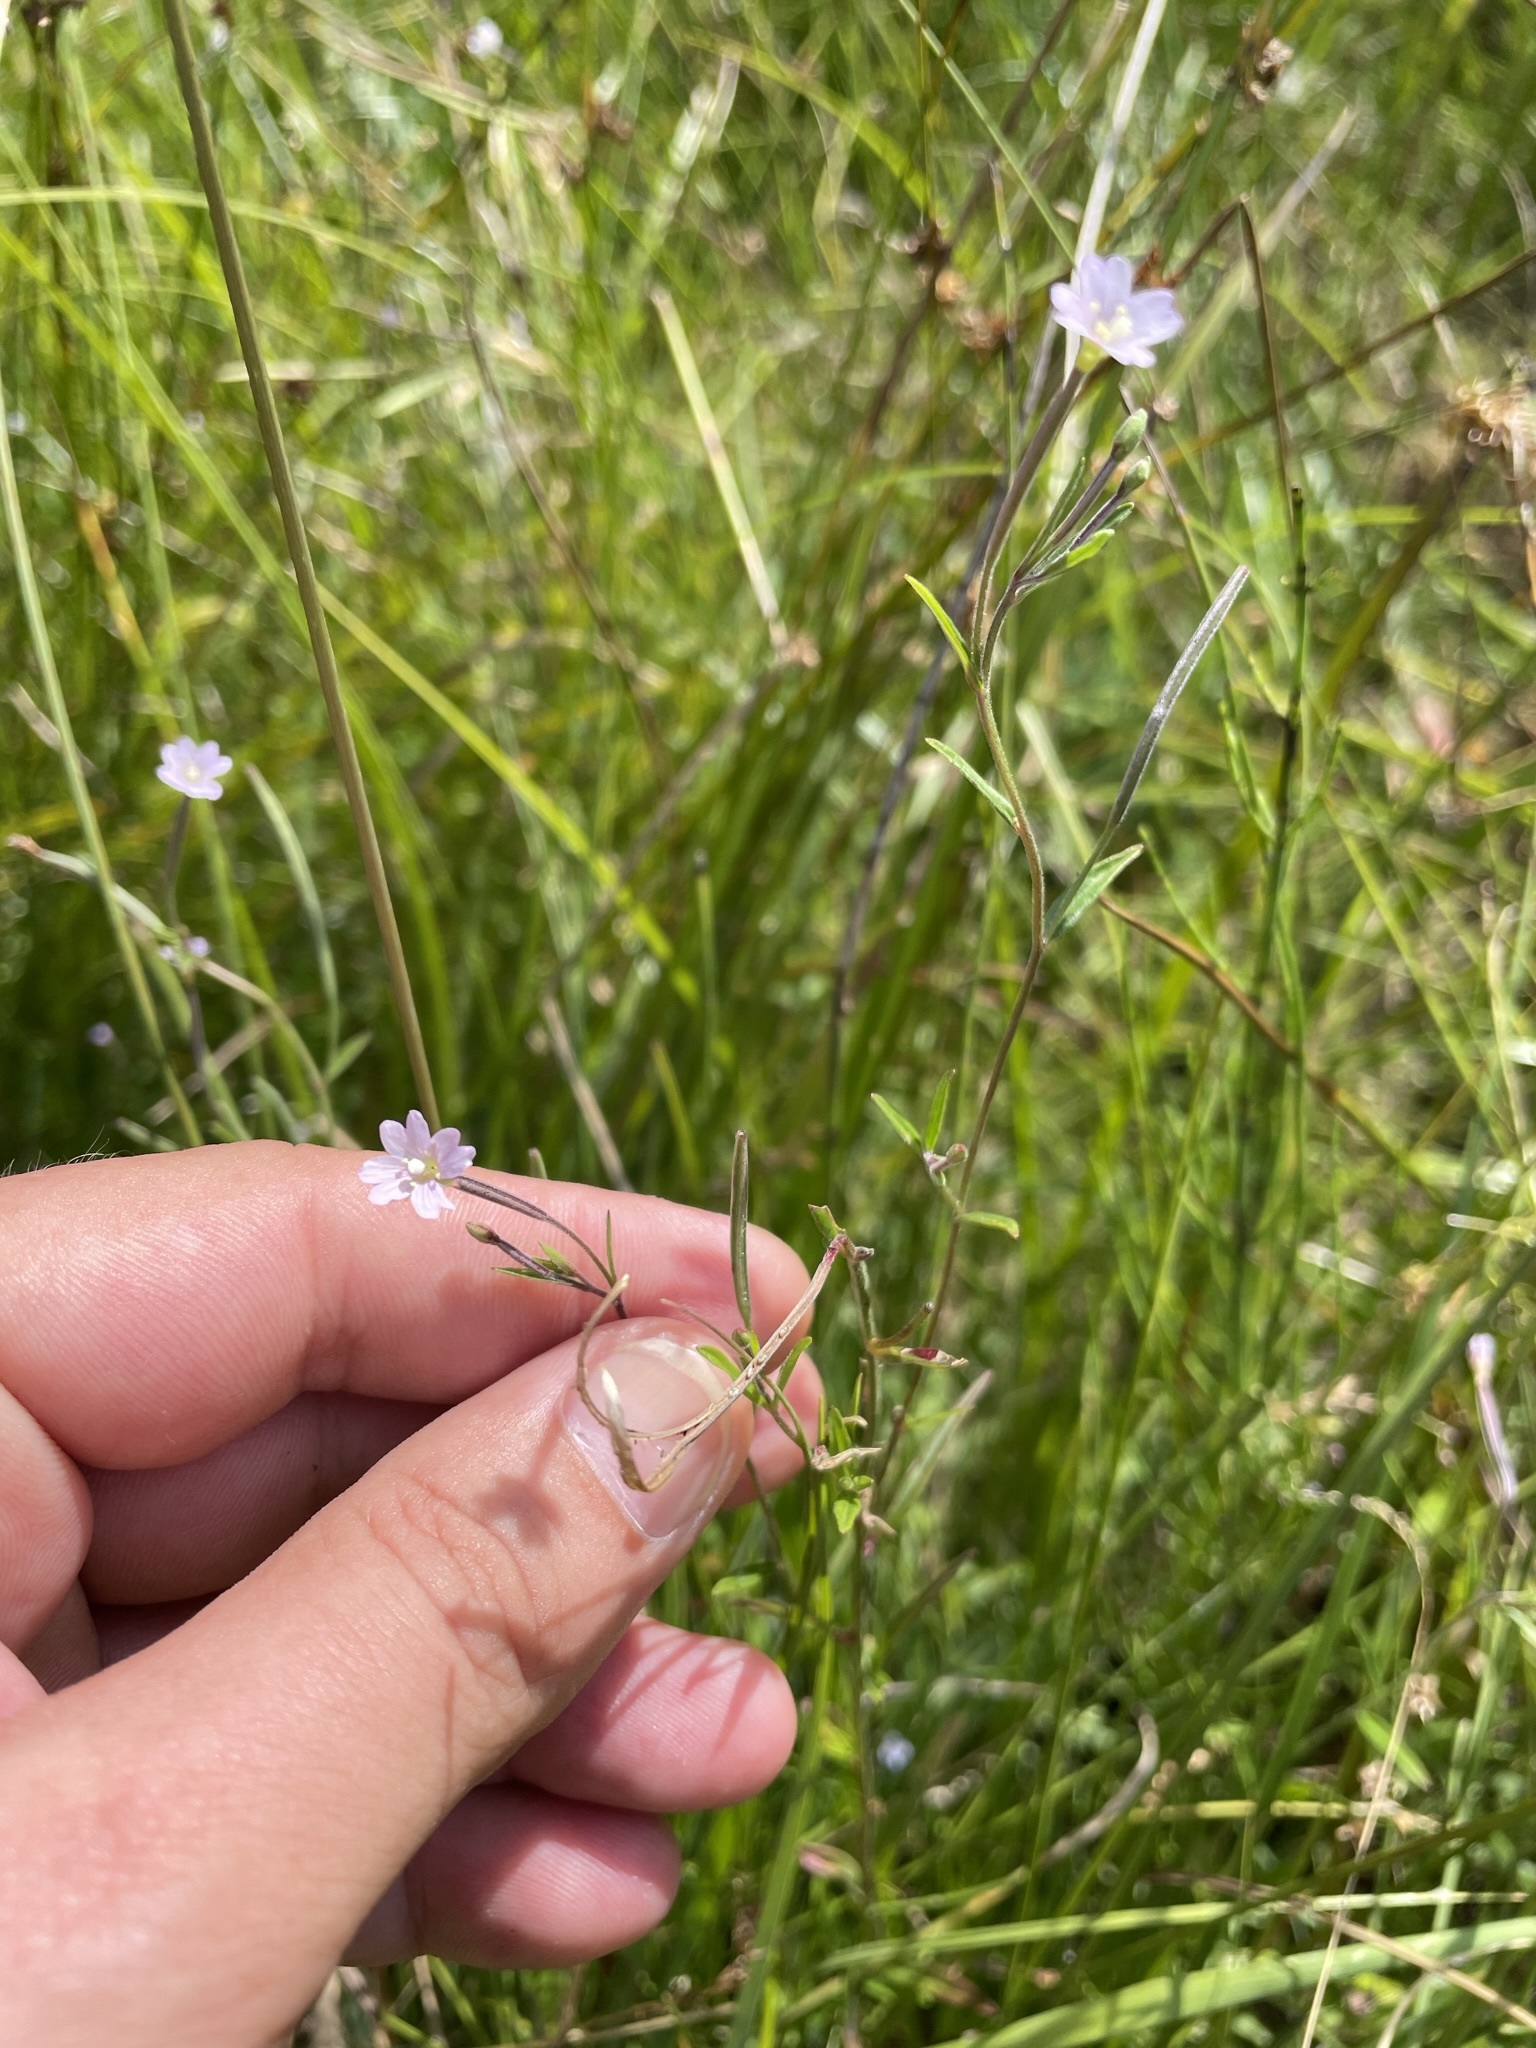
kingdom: Plantae
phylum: Tracheophyta
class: Magnoliopsida
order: Myrtales
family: Onagraceae
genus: Epilobium
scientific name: Epilobium palustre
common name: Marsh willowherb
